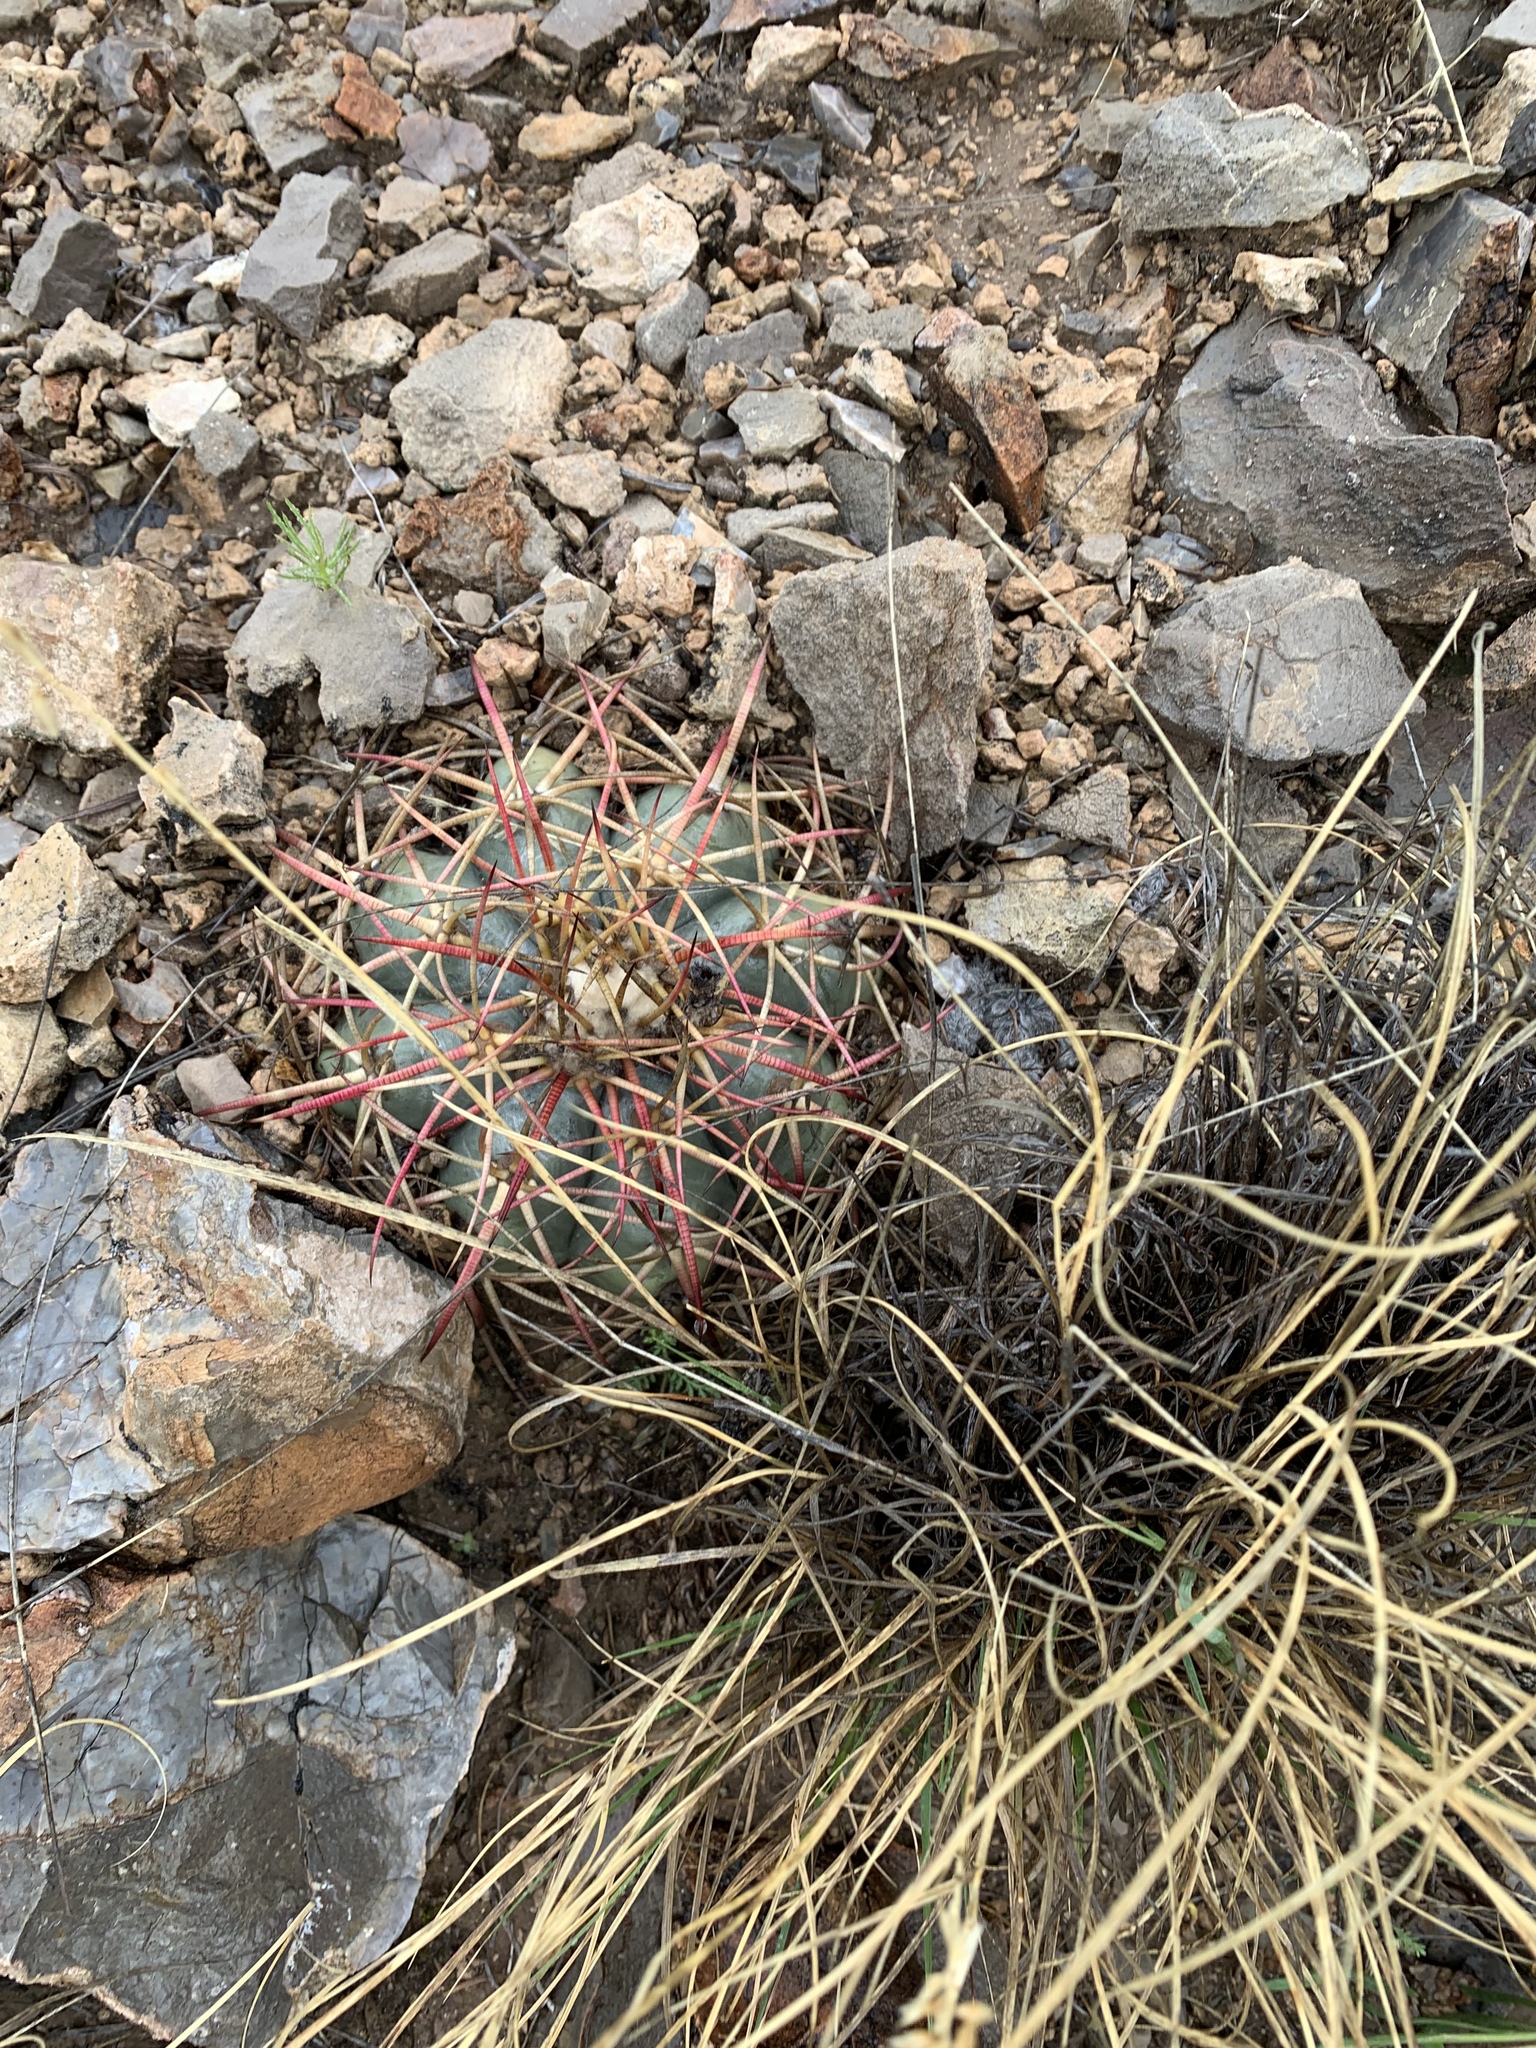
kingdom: Plantae
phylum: Tracheophyta
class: Magnoliopsida
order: Caryophyllales
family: Cactaceae
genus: Echinocactus
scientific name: Echinocactus horizonthalonius
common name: Devilshead
